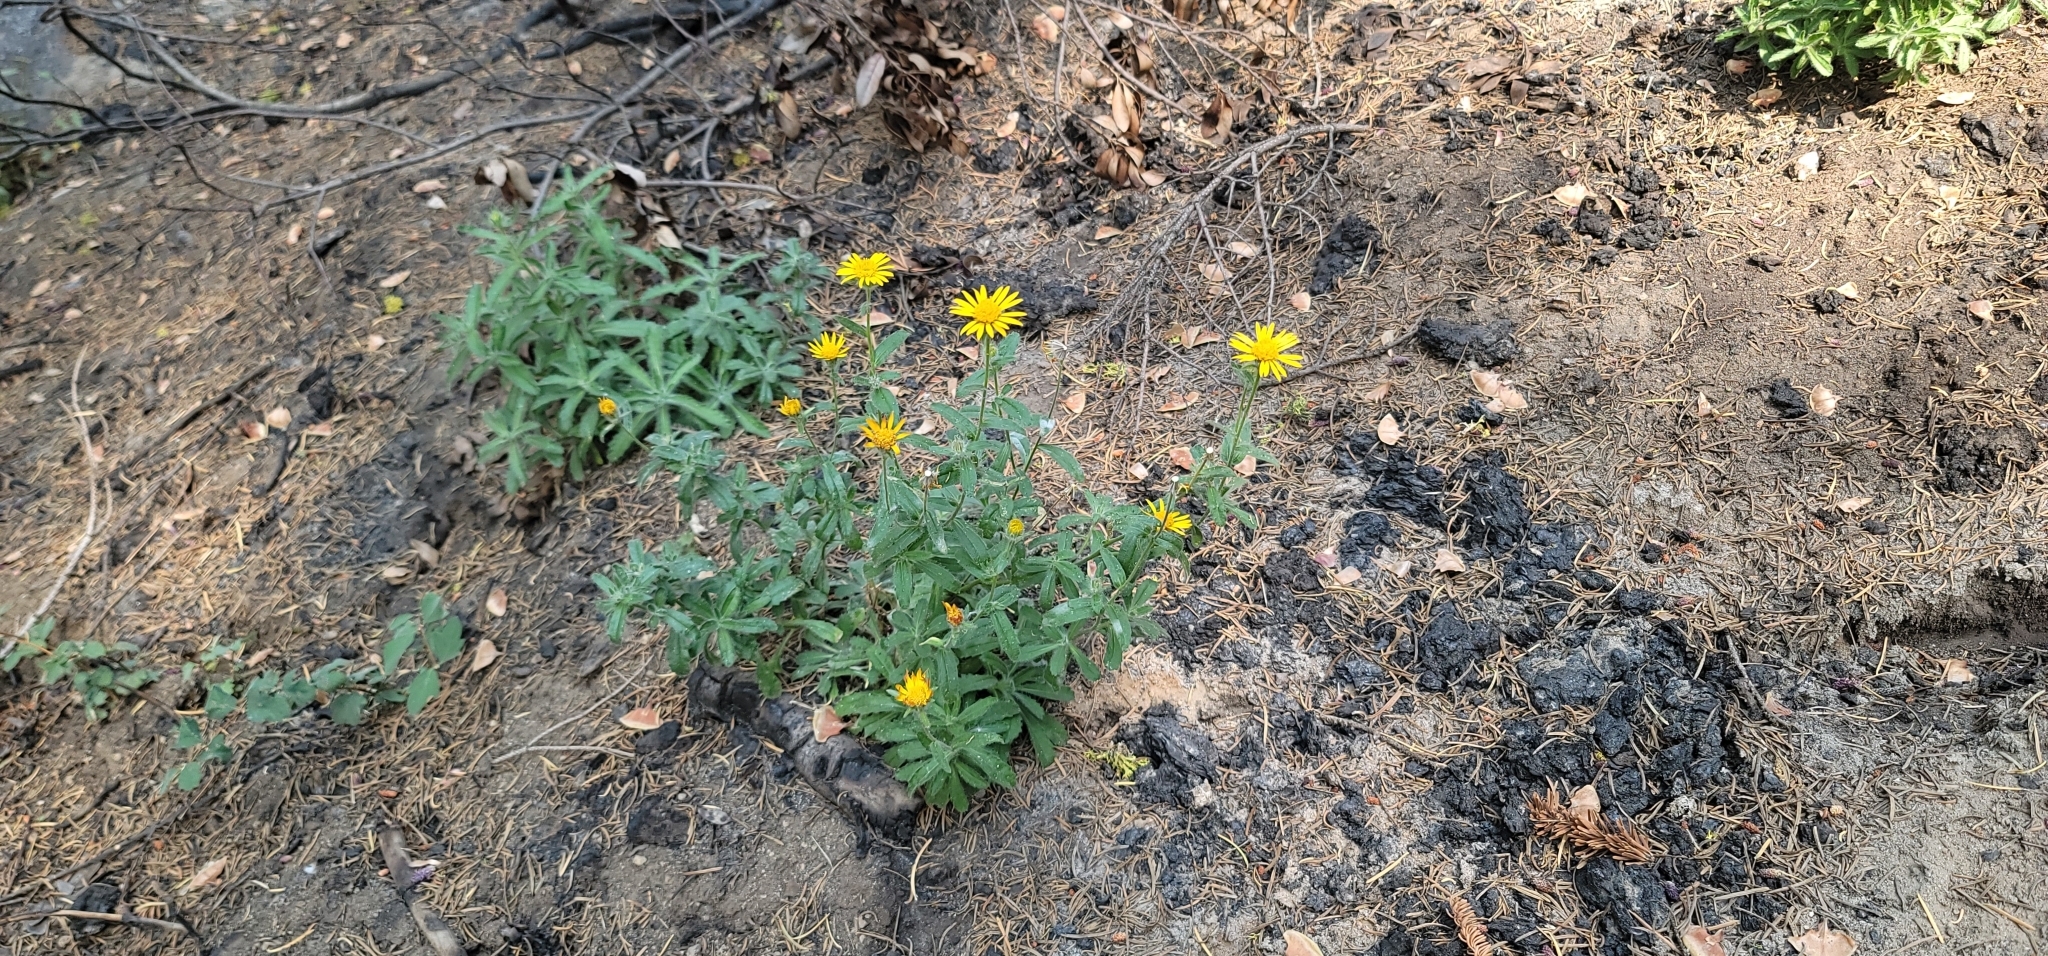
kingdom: Plantae
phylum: Tracheophyta
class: Magnoliopsida
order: Asterales
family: Asteraceae
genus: Hulsea
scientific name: Hulsea brevifolia
